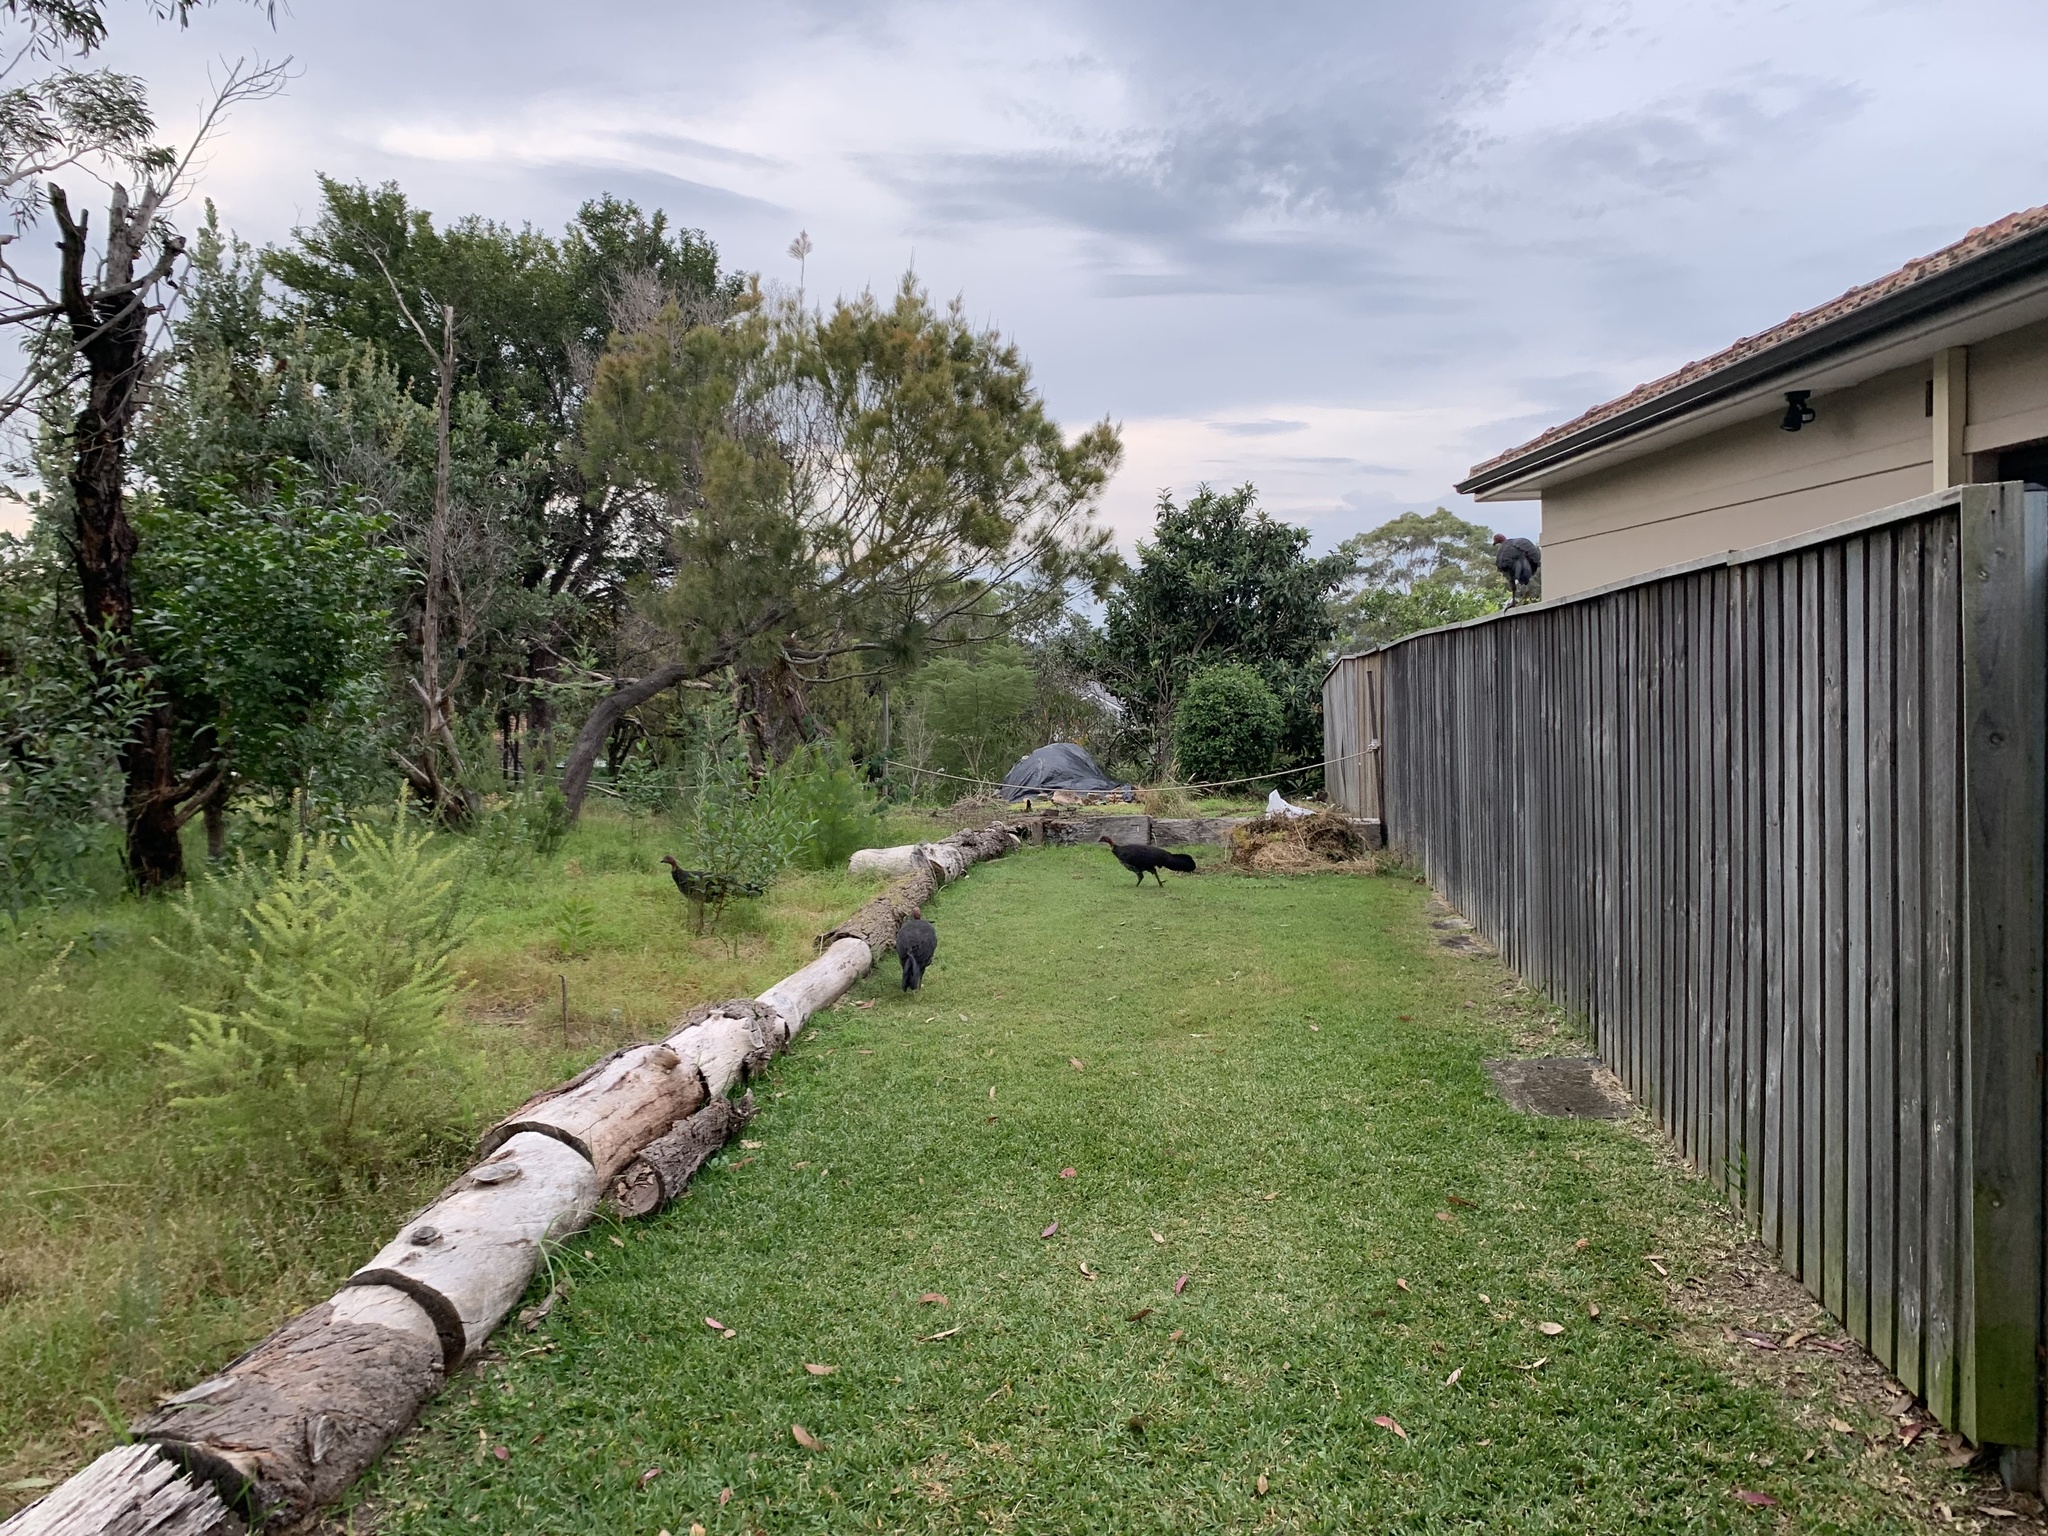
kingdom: Animalia
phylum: Chordata
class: Aves
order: Galliformes
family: Megapodiidae
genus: Alectura
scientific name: Alectura lathami
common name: Australian brushturkey
